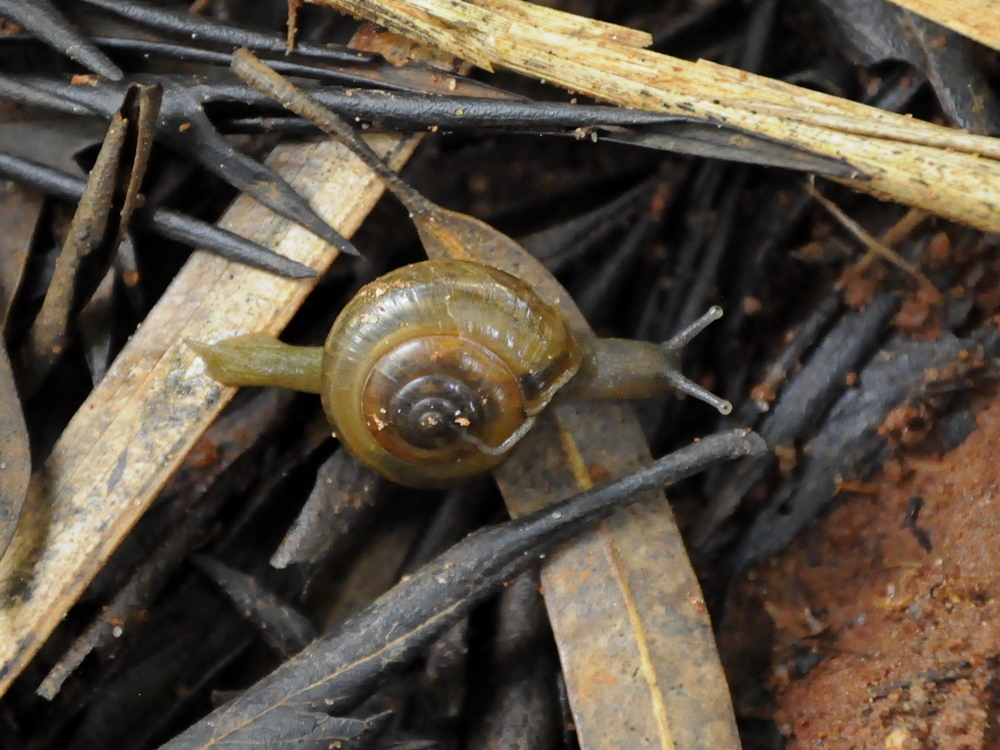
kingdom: Animalia
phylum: Mollusca
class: Gastropoda
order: Stylommatophora
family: Ariophantidae
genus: Macrochlamys
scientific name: Macrochlamys indica
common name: Horntail snail
